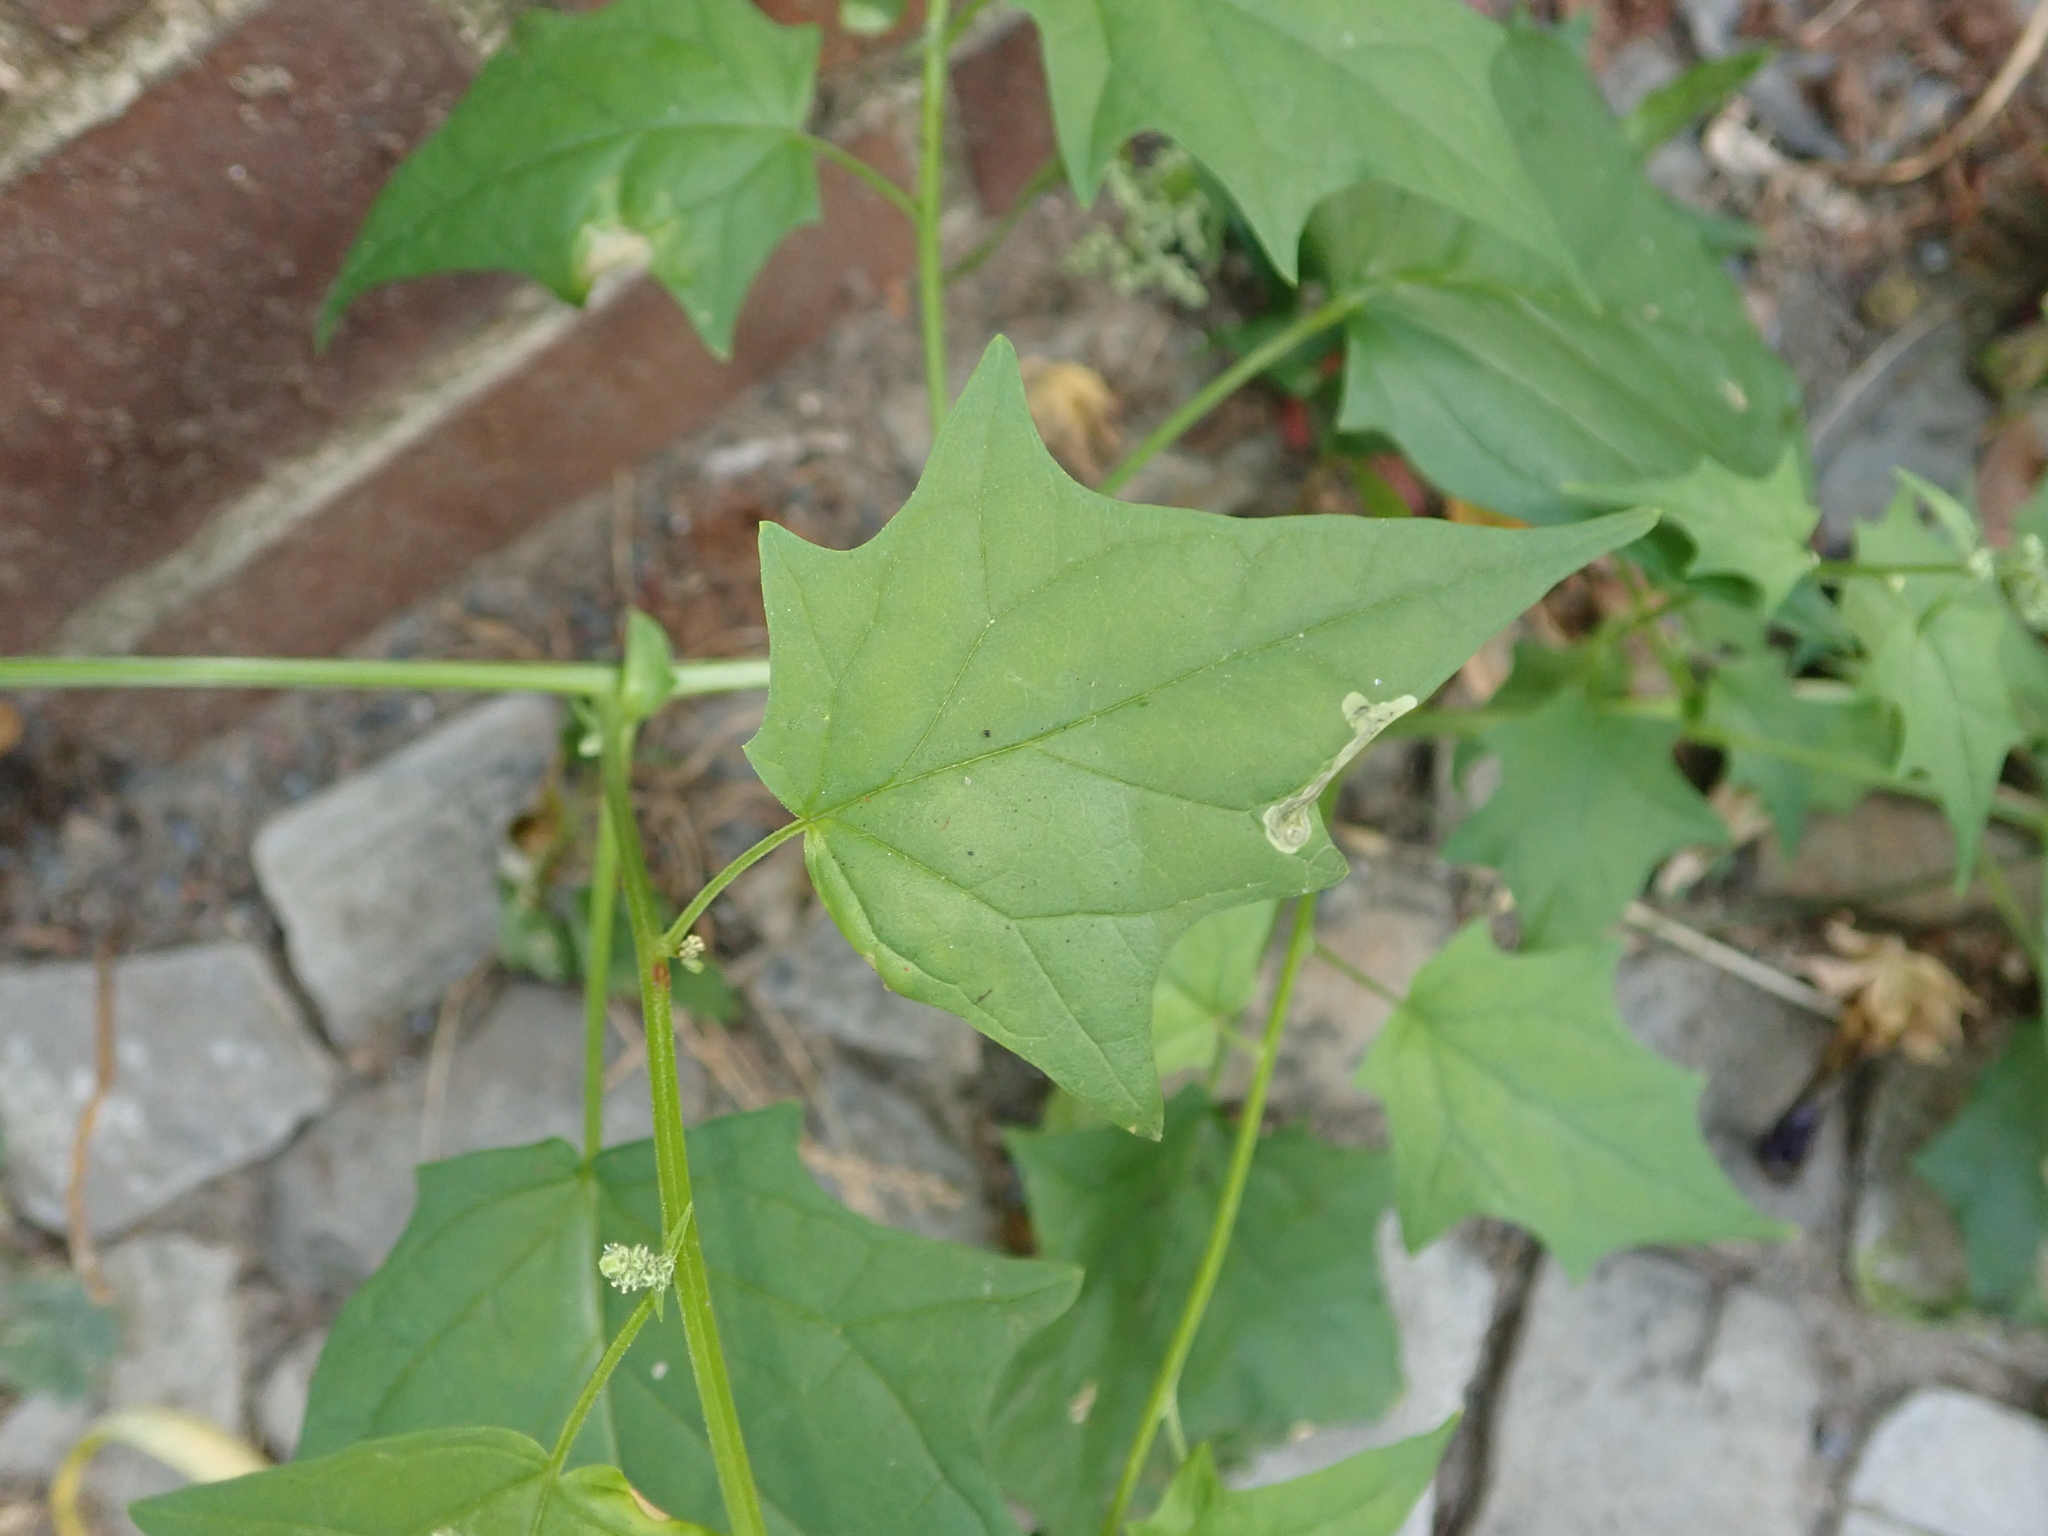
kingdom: Plantae
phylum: Tracheophyta
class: Magnoliopsida
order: Caryophyllales
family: Amaranthaceae
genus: Chenopodiastrum
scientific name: Chenopodiastrum hybridum
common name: Mapleleaf goosefoot
